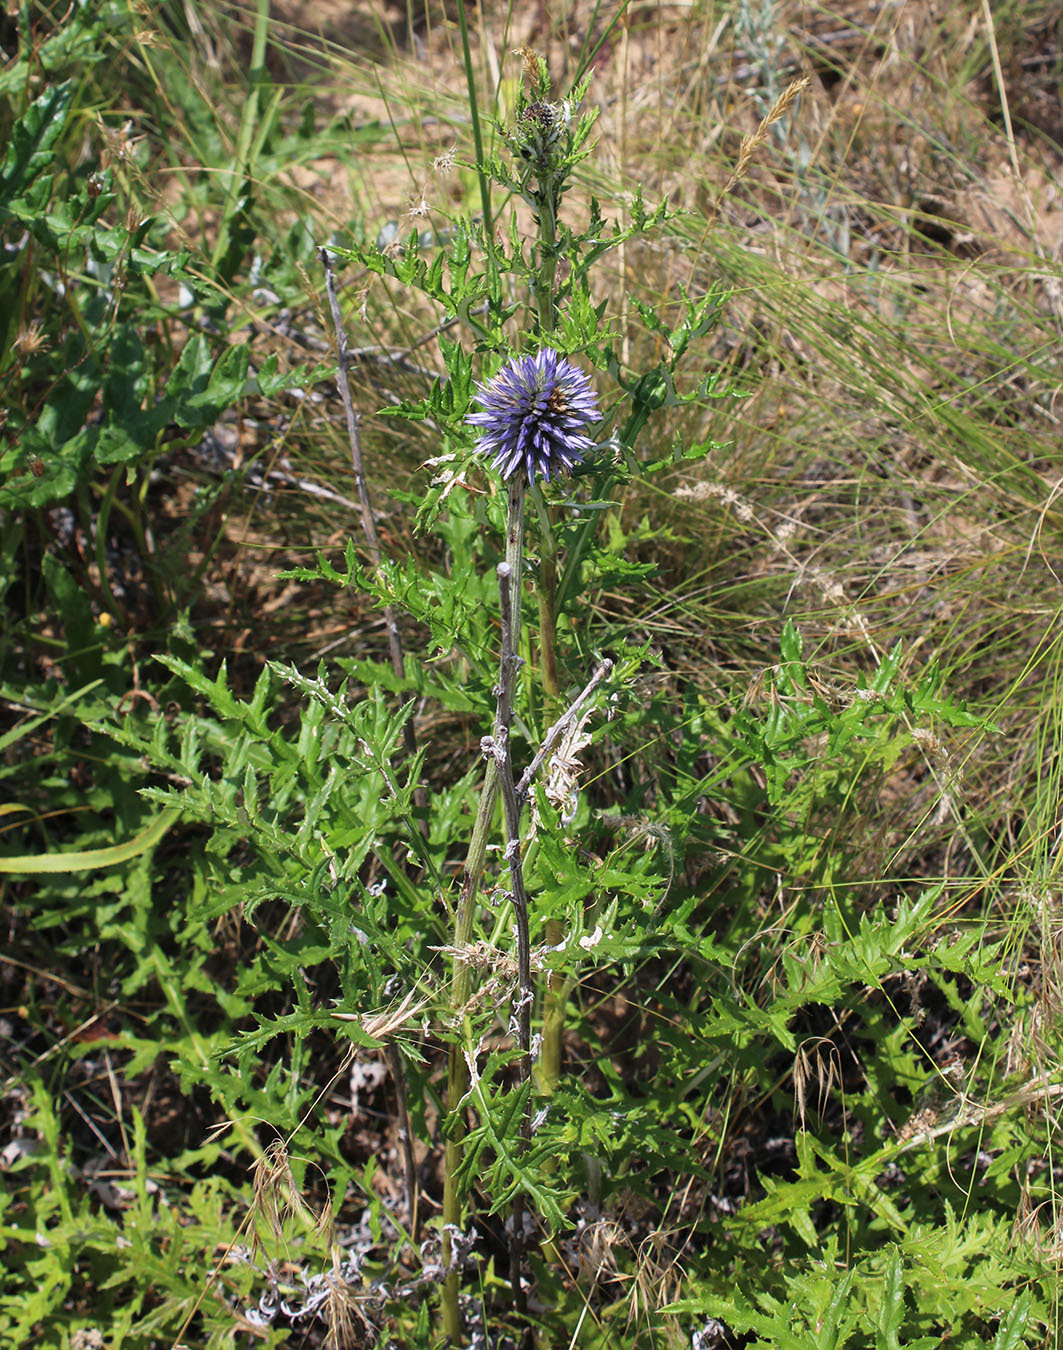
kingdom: Plantae
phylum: Tracheophyta
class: Magnoliopsida
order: Asterales
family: Asteraceae
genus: Echinops
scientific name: Echinops ritro
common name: Globe thistle
